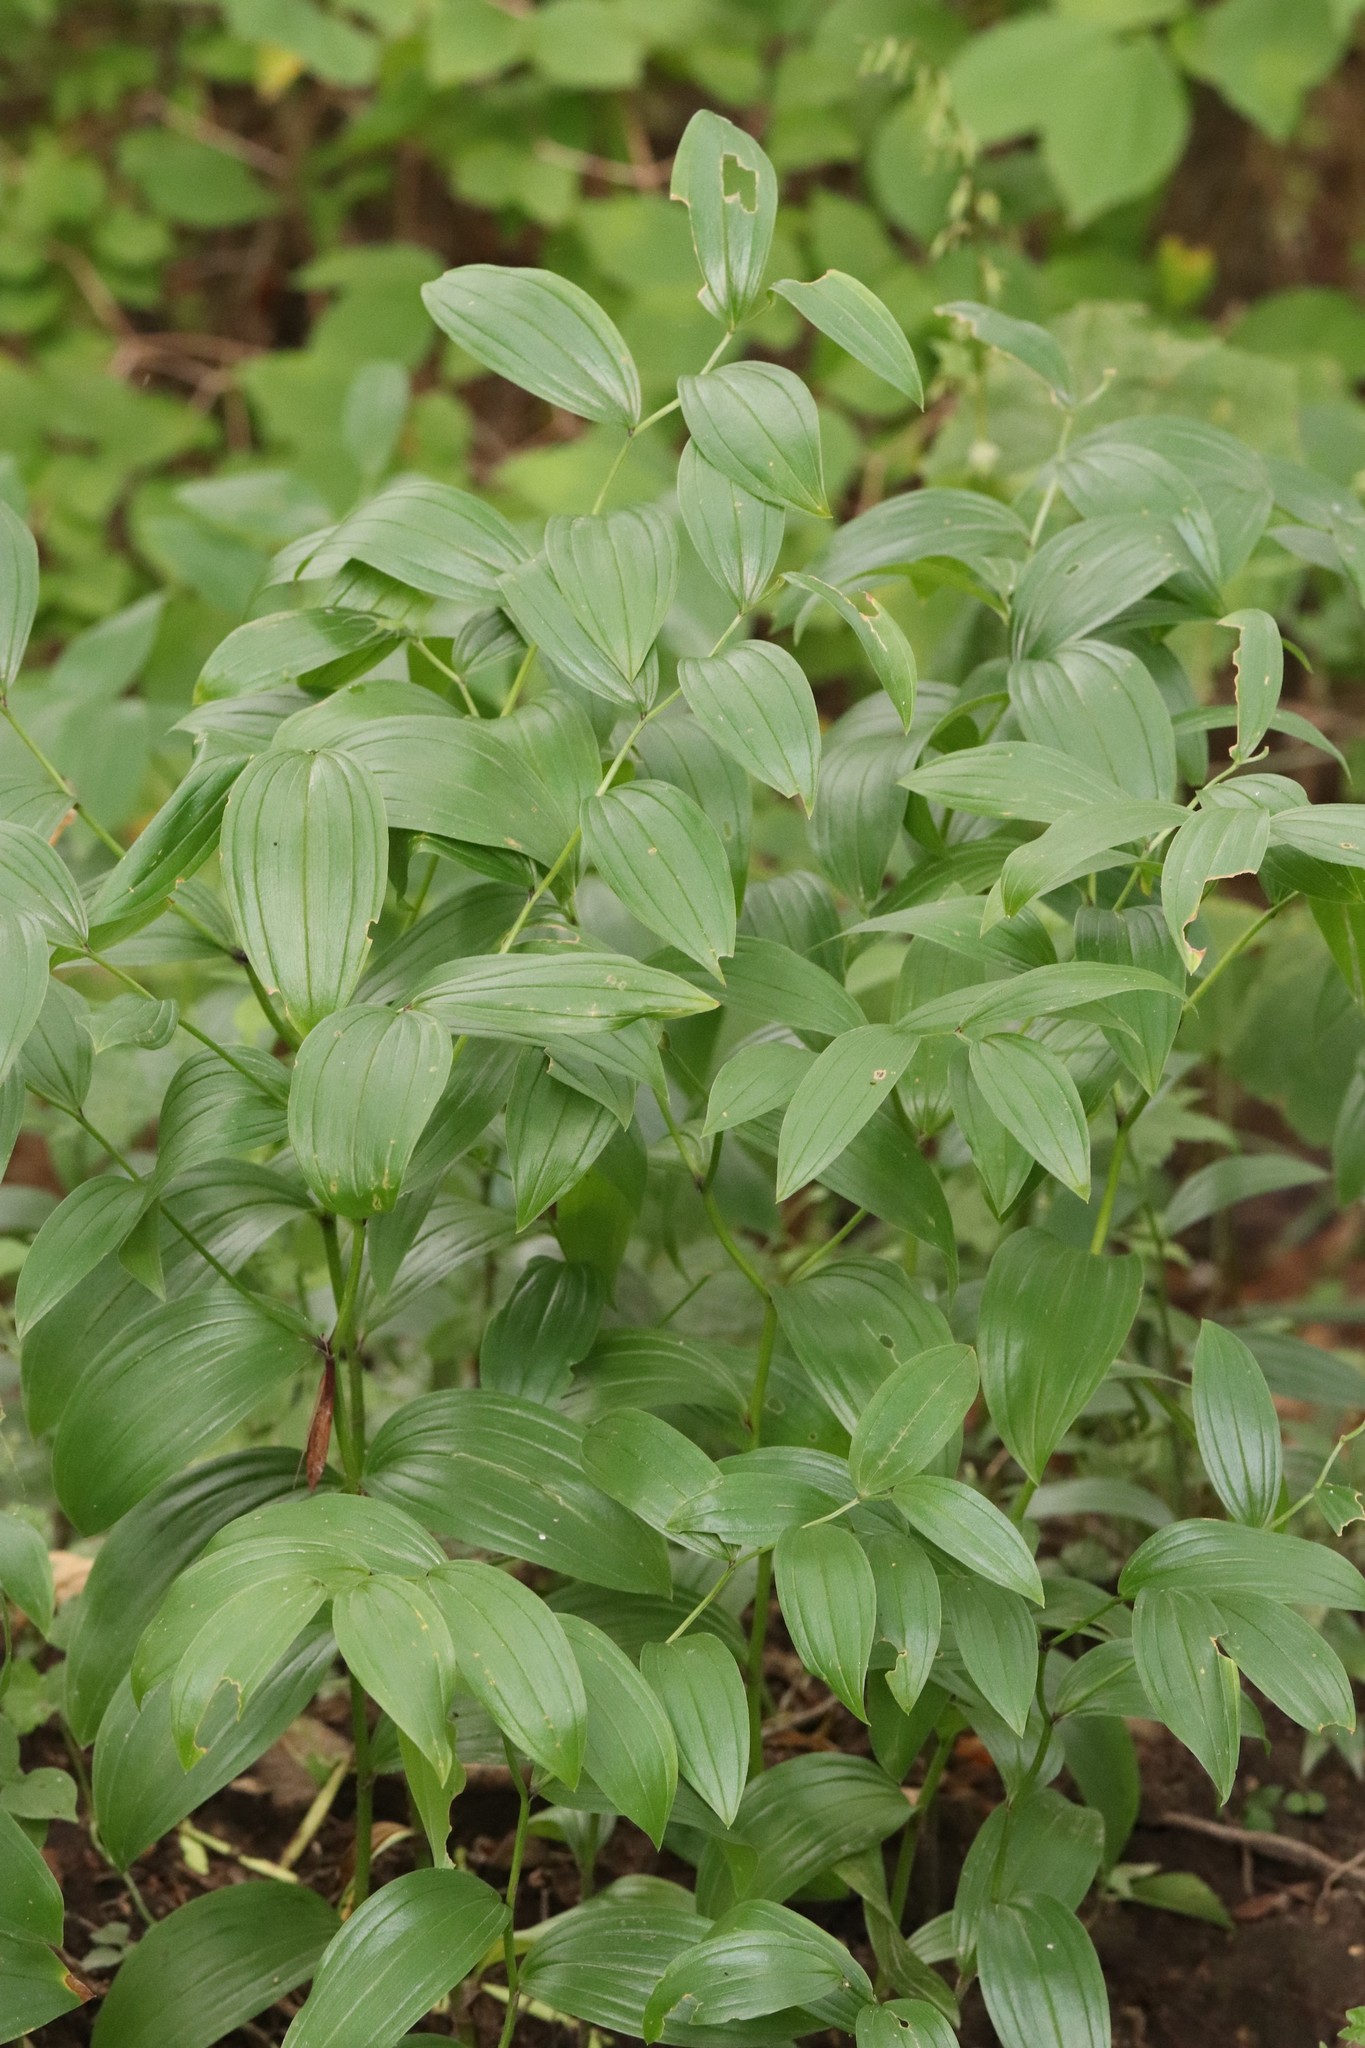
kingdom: Plantae
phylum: Tracheophyta
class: Liliopsida
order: Liliales
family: Colchicaceae
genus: Disporum
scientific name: Disporum viridescens
